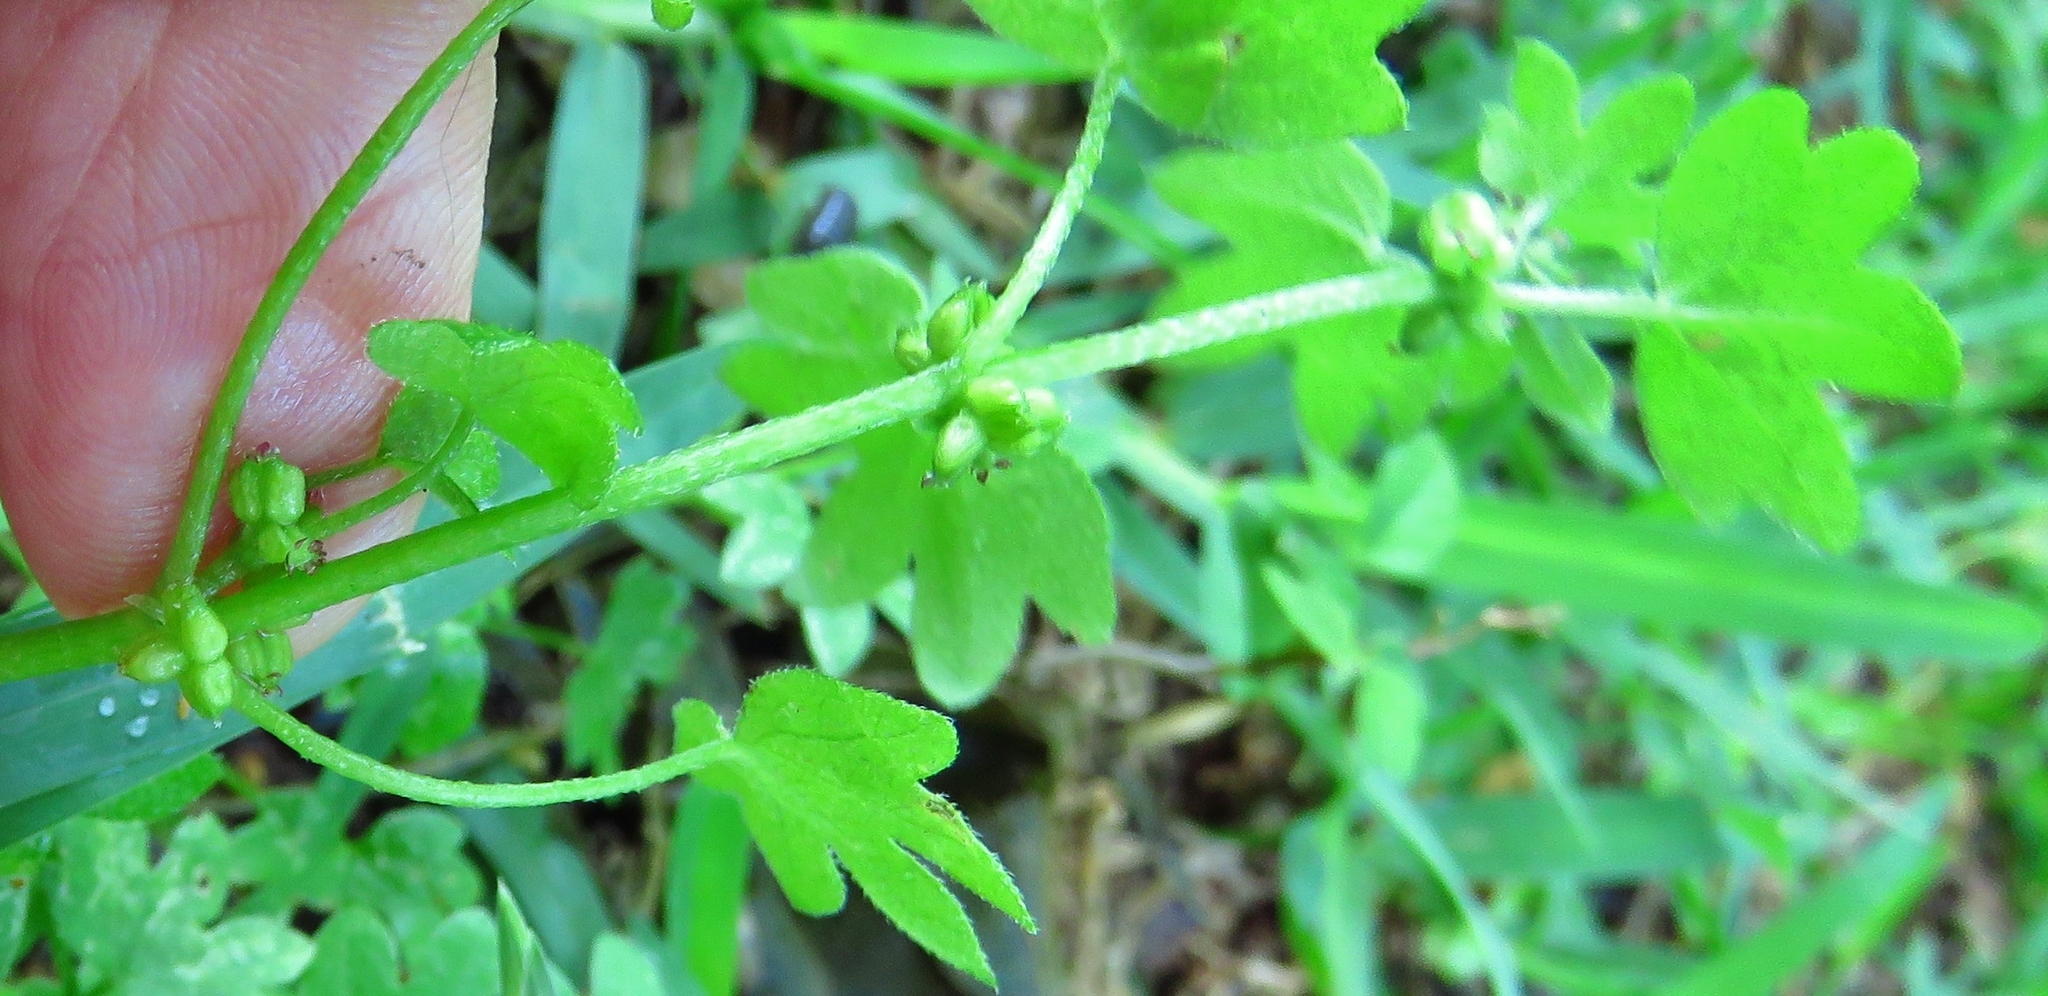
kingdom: Plantae
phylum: Tracheophyta
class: Magnoliopsida
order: Apiales
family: Apiaceae
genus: Bowlesia
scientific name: Bowlesia incana
